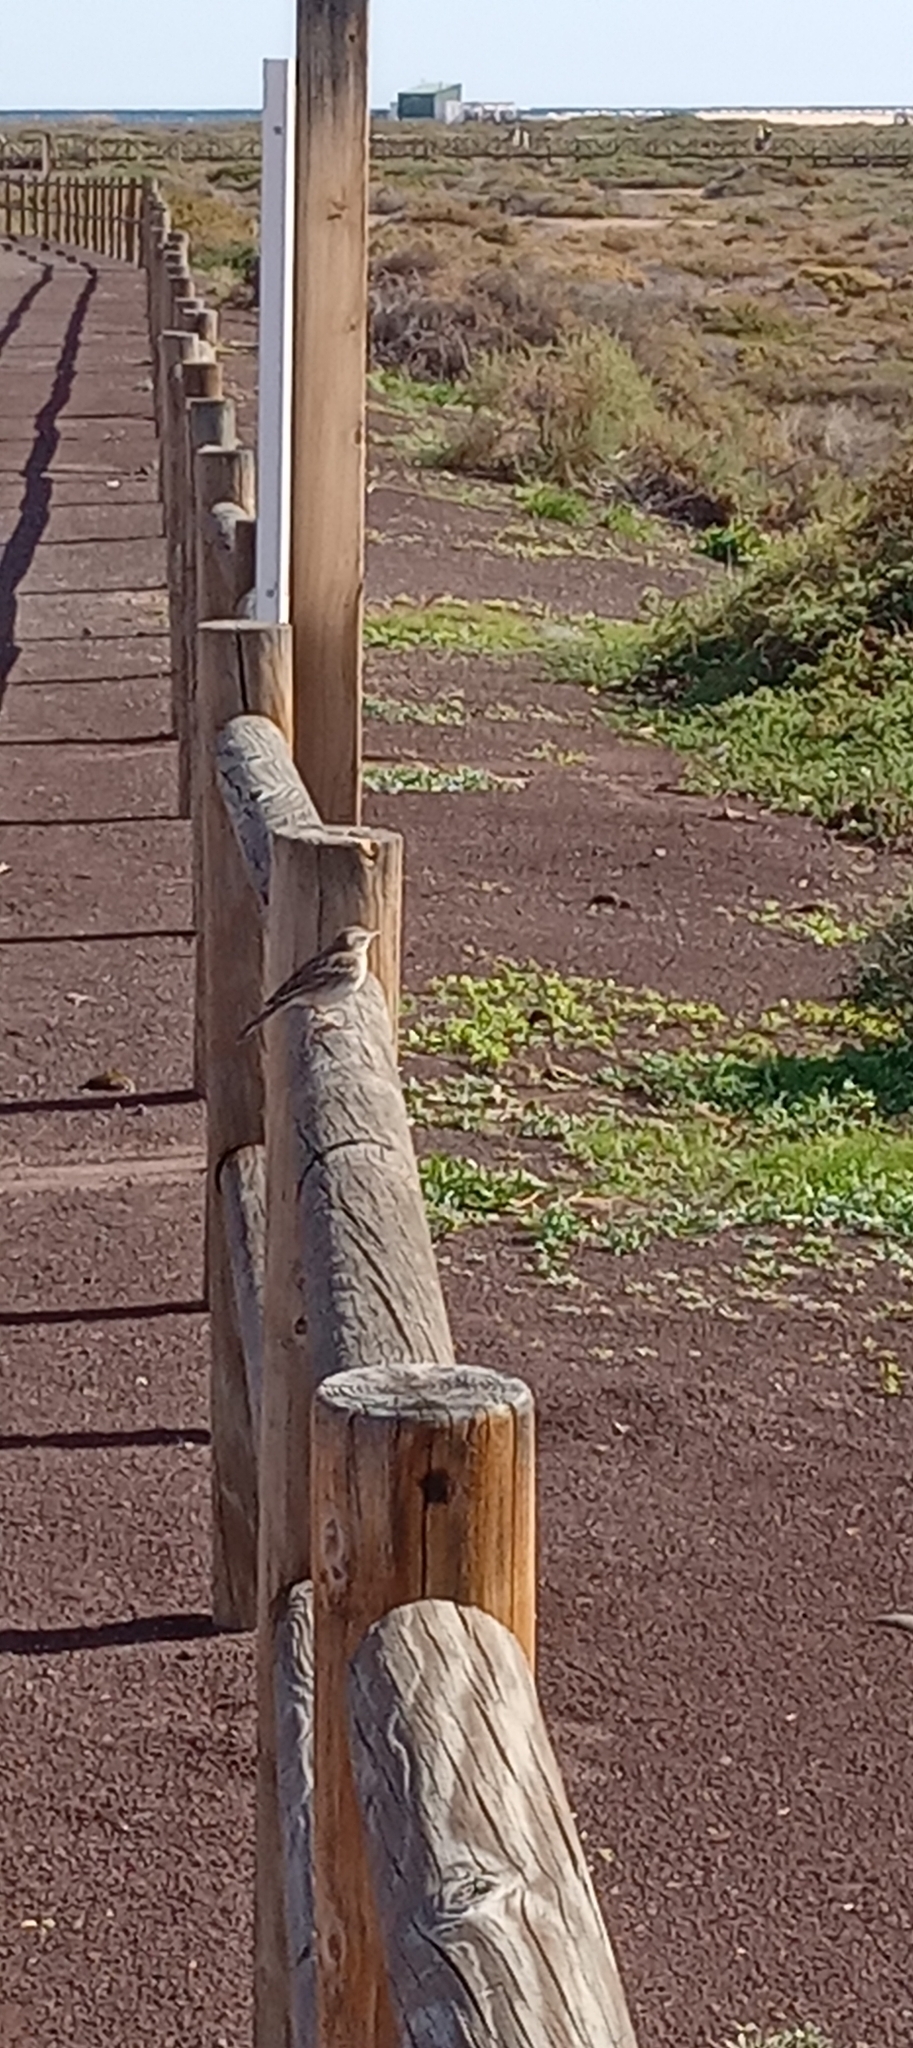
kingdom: Animalia
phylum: Chordata
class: Aves
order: Passeriformes
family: Motacillidae
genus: Anthus
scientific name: Anthus berthelotii
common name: Berthelot's pipit
